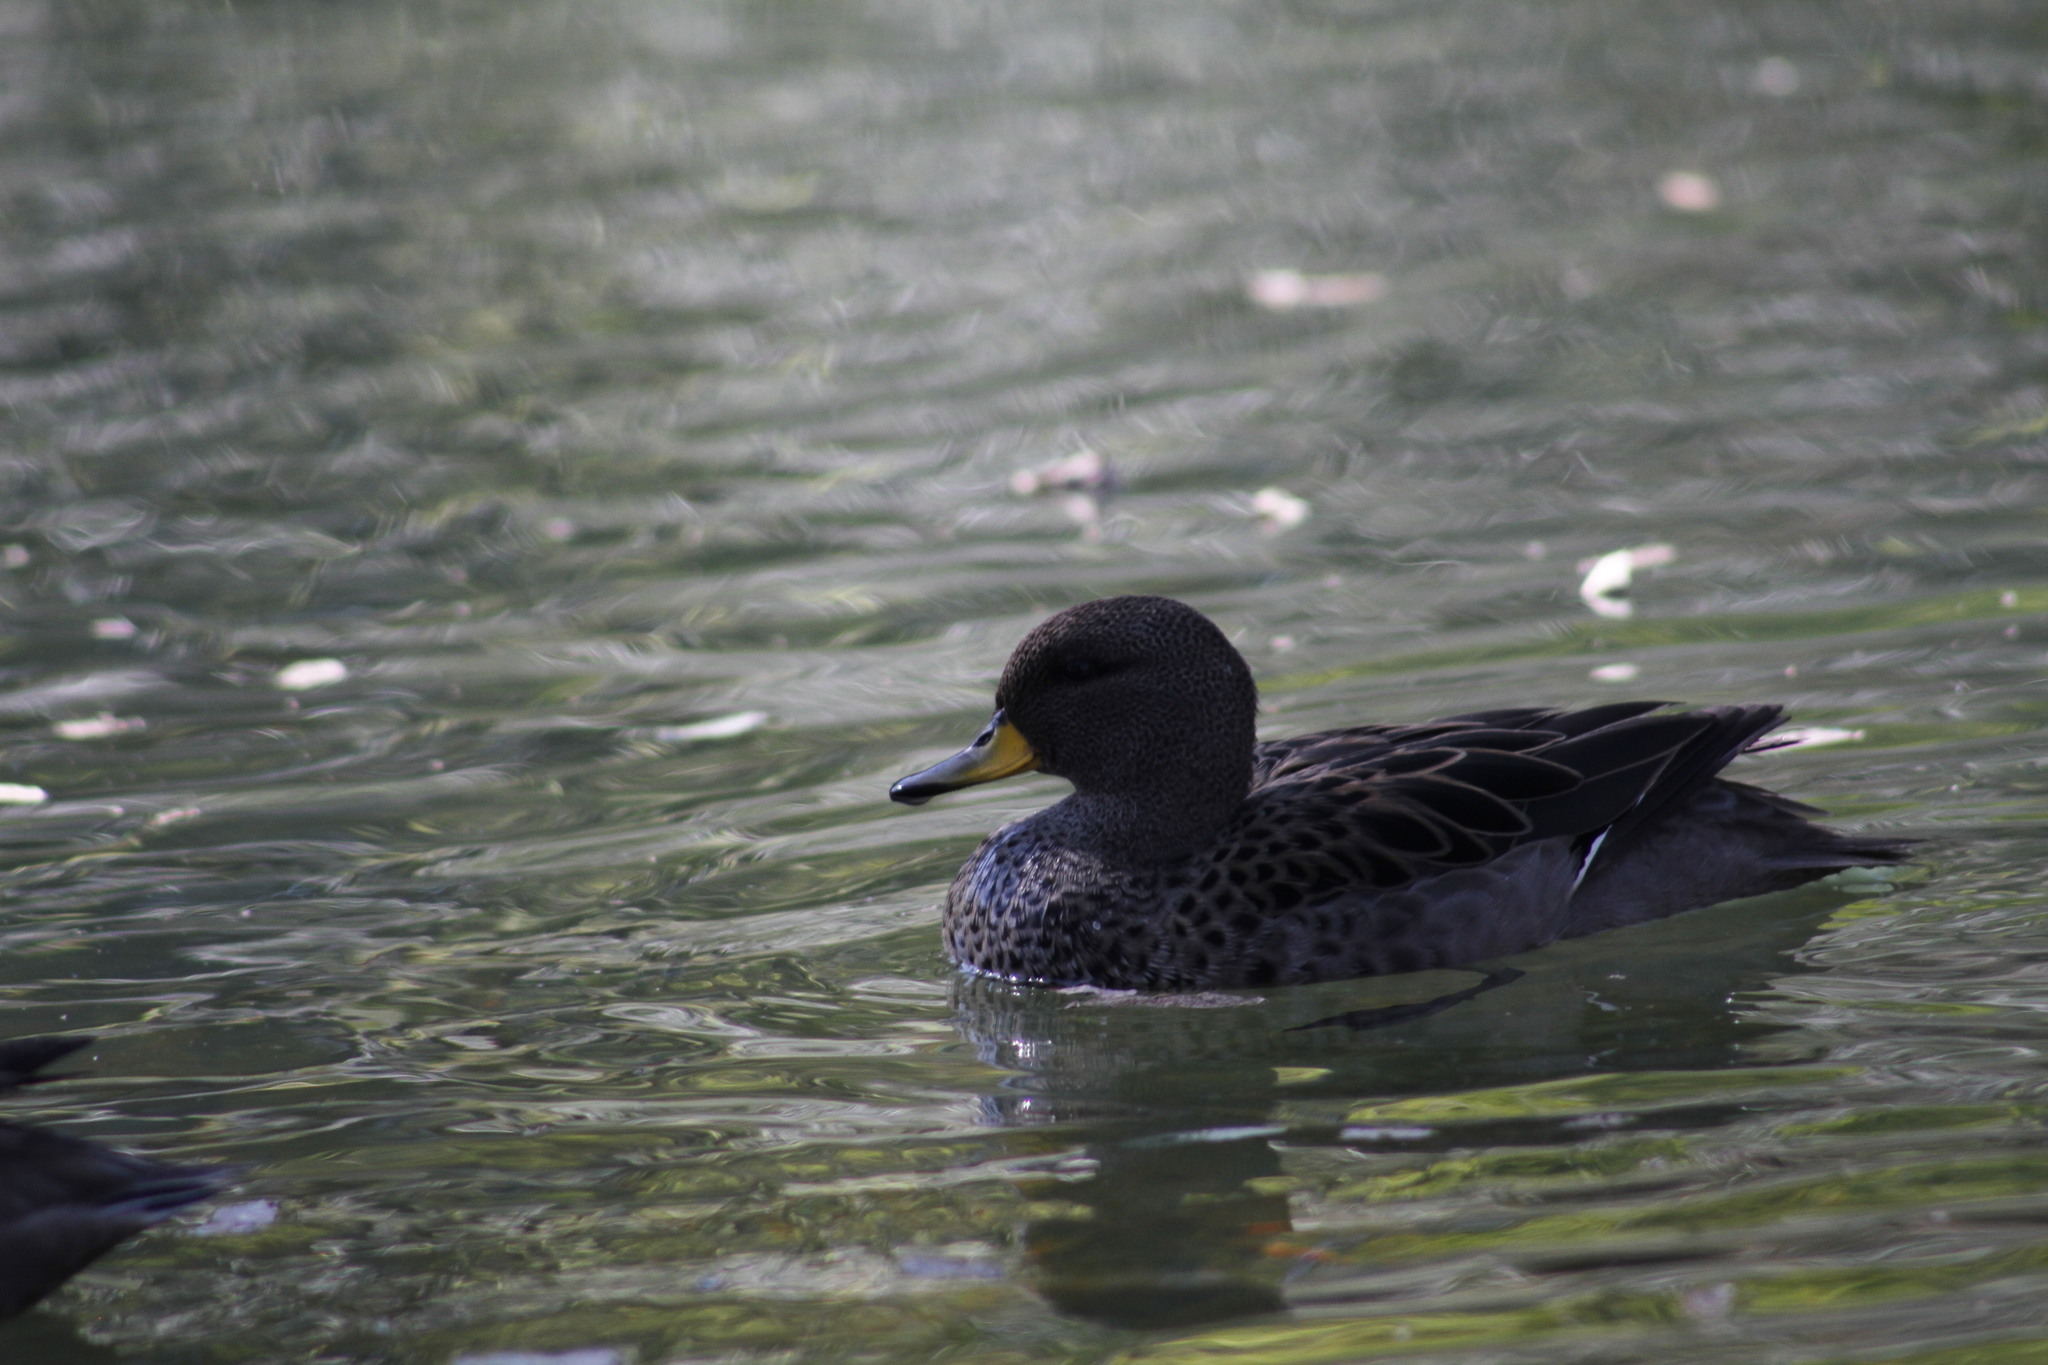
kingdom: Animalia
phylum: Chordata
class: Aves
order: Anseriformes
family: Anatidae
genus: Anas
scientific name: Anas flavirostris
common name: Yellow-billed teal
